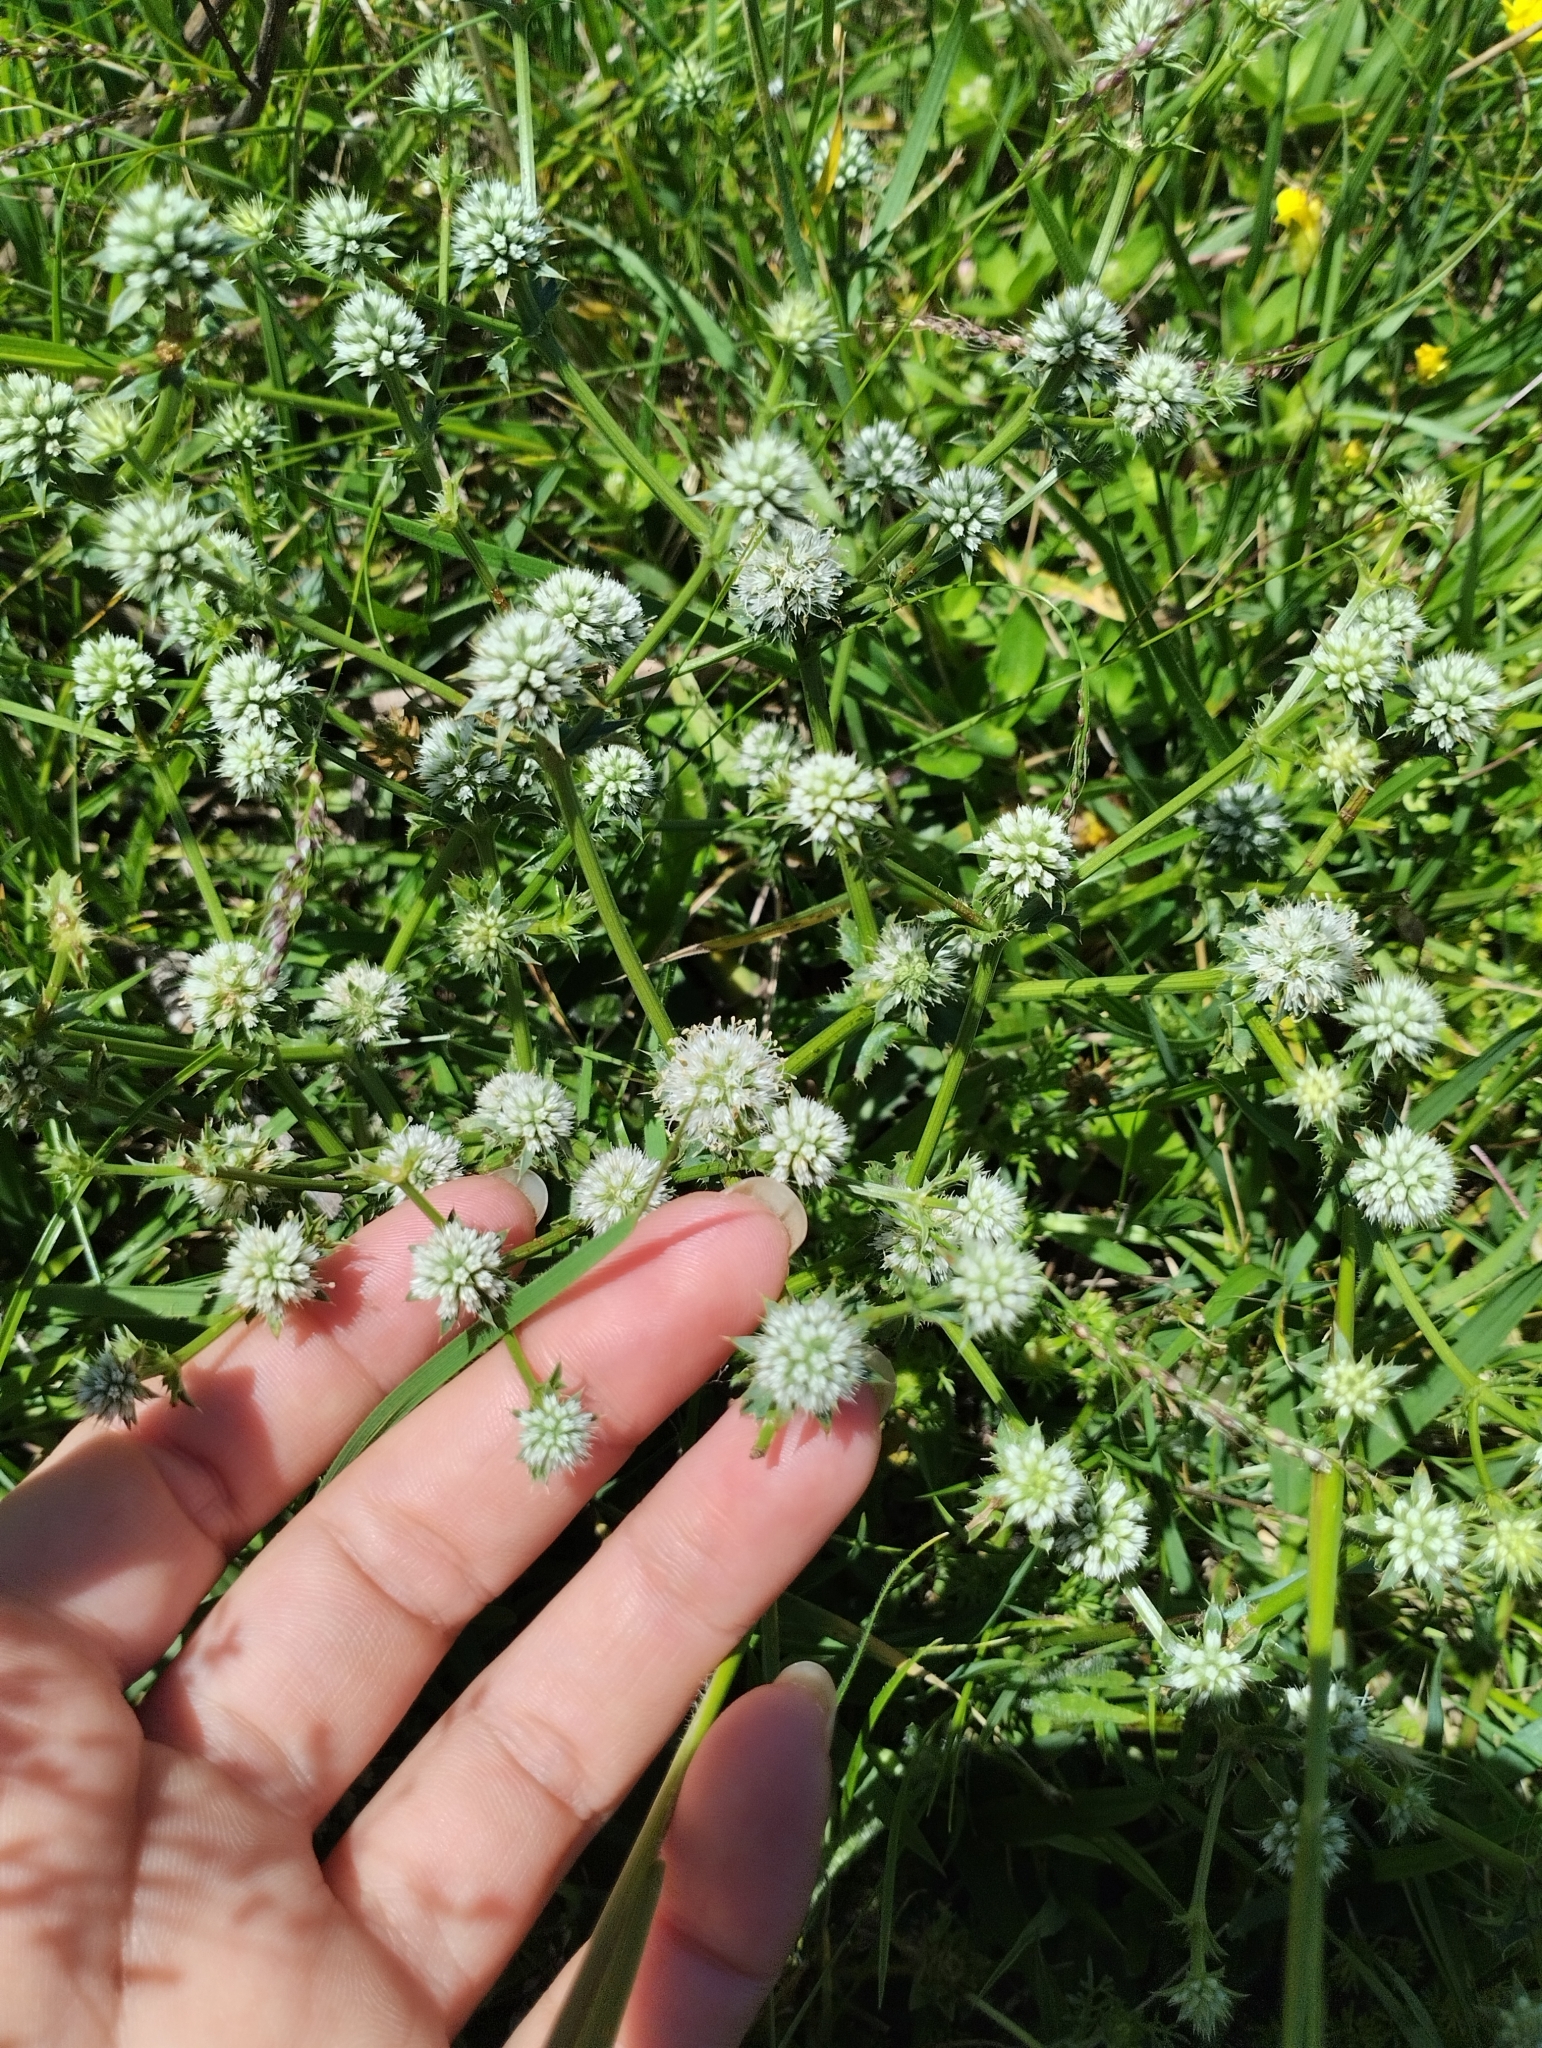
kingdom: Plantae
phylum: Tracheophyta
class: Magnoliopsida
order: Apiales
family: Apiaceae
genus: Eryngium
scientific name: Eryngium nudicaule
